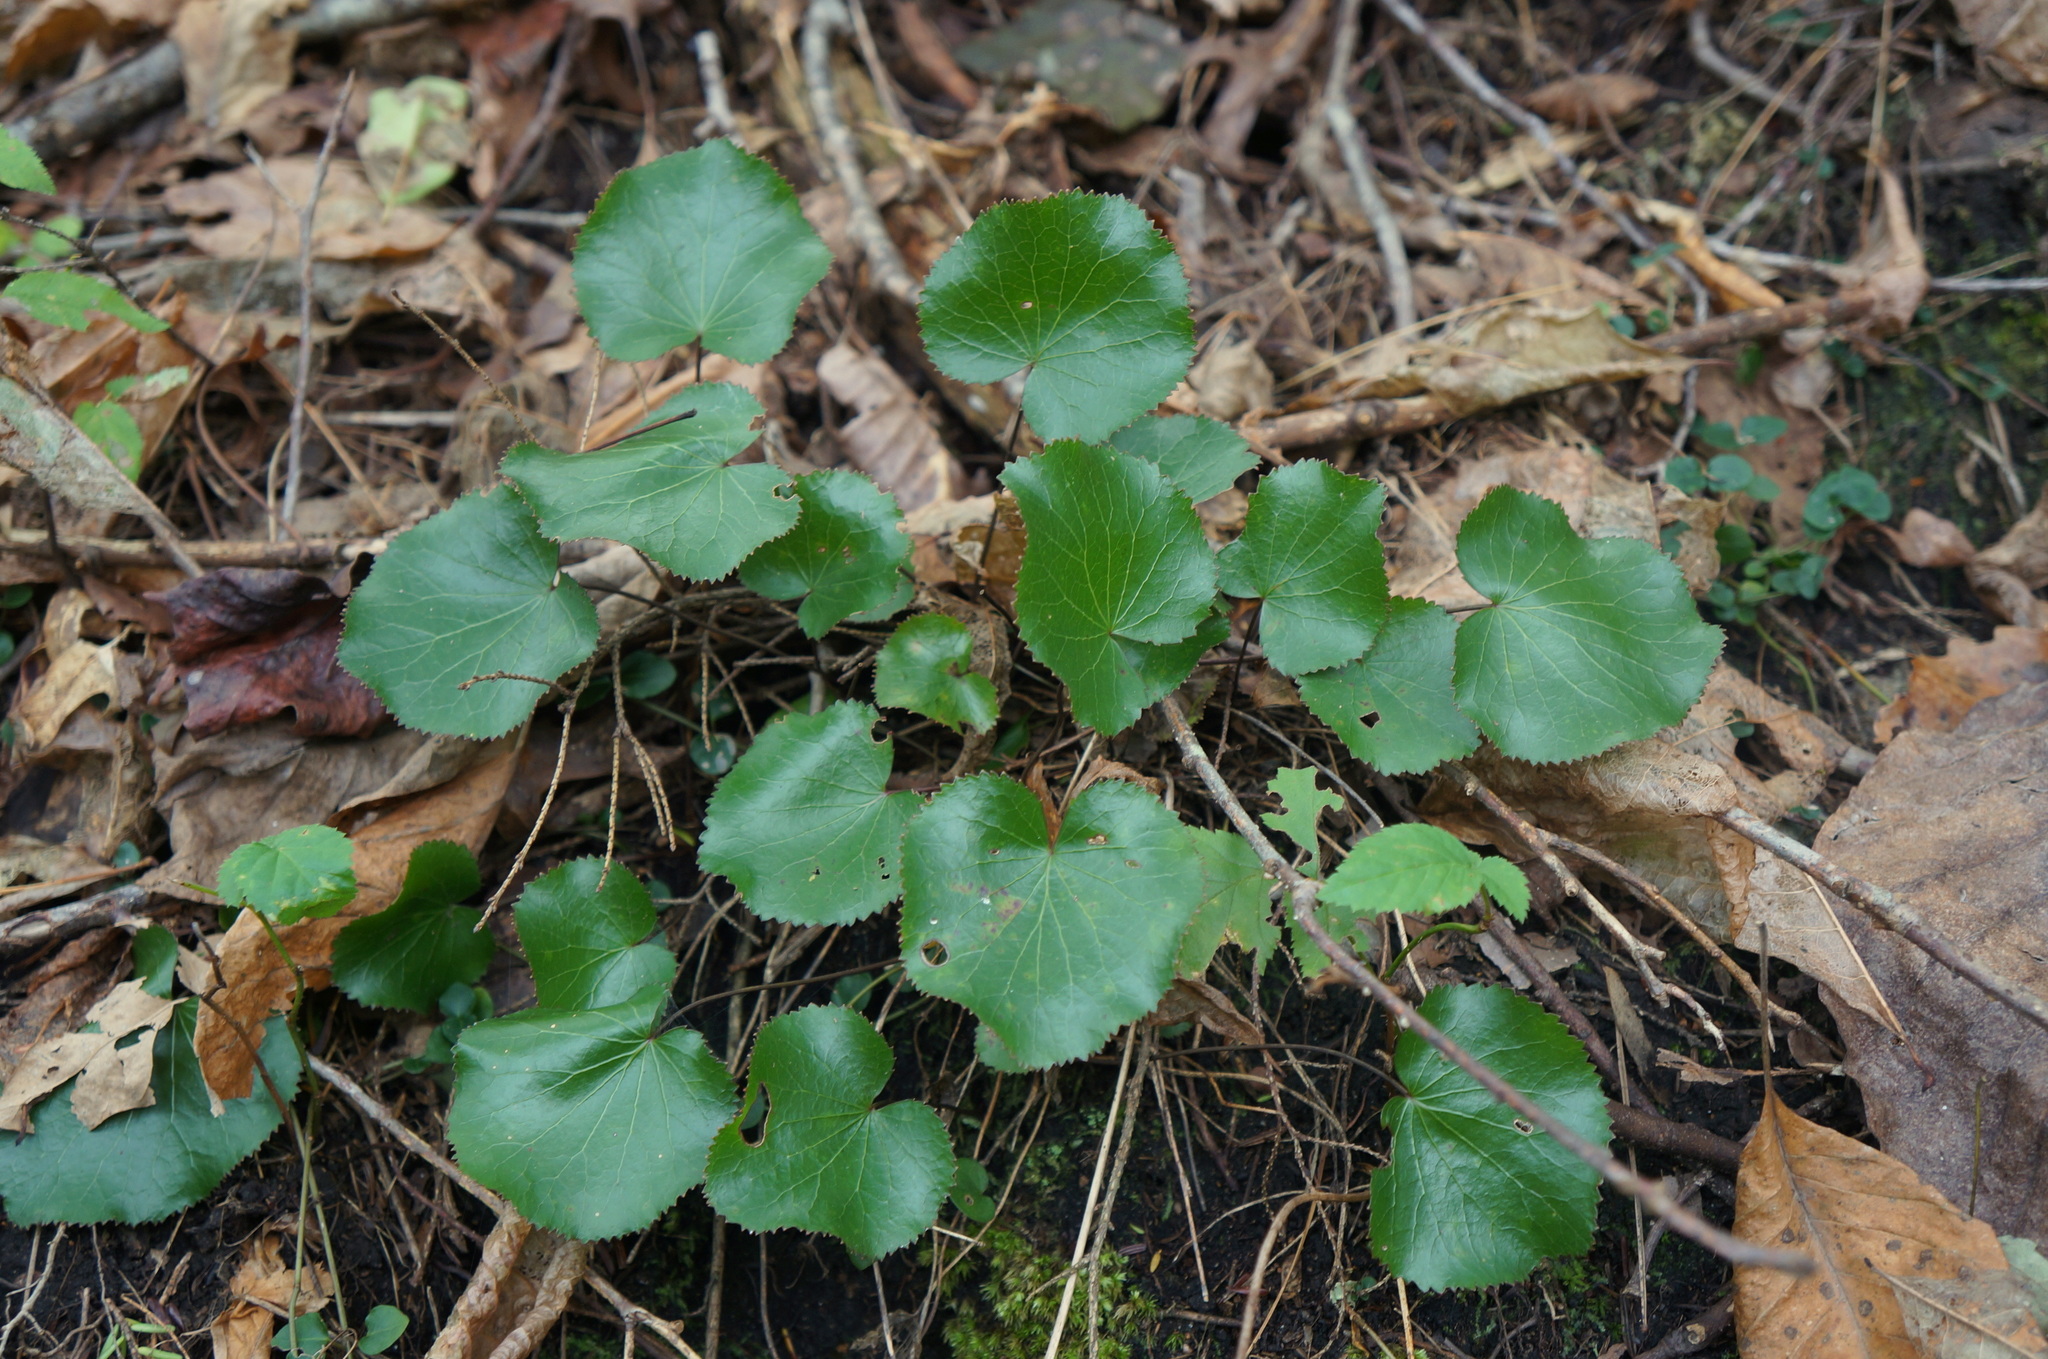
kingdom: Plantae
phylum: Tracheophyta
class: Magnoliopsida
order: Ericales
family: Diapensiaceae
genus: Galax
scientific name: Galax urceolata
